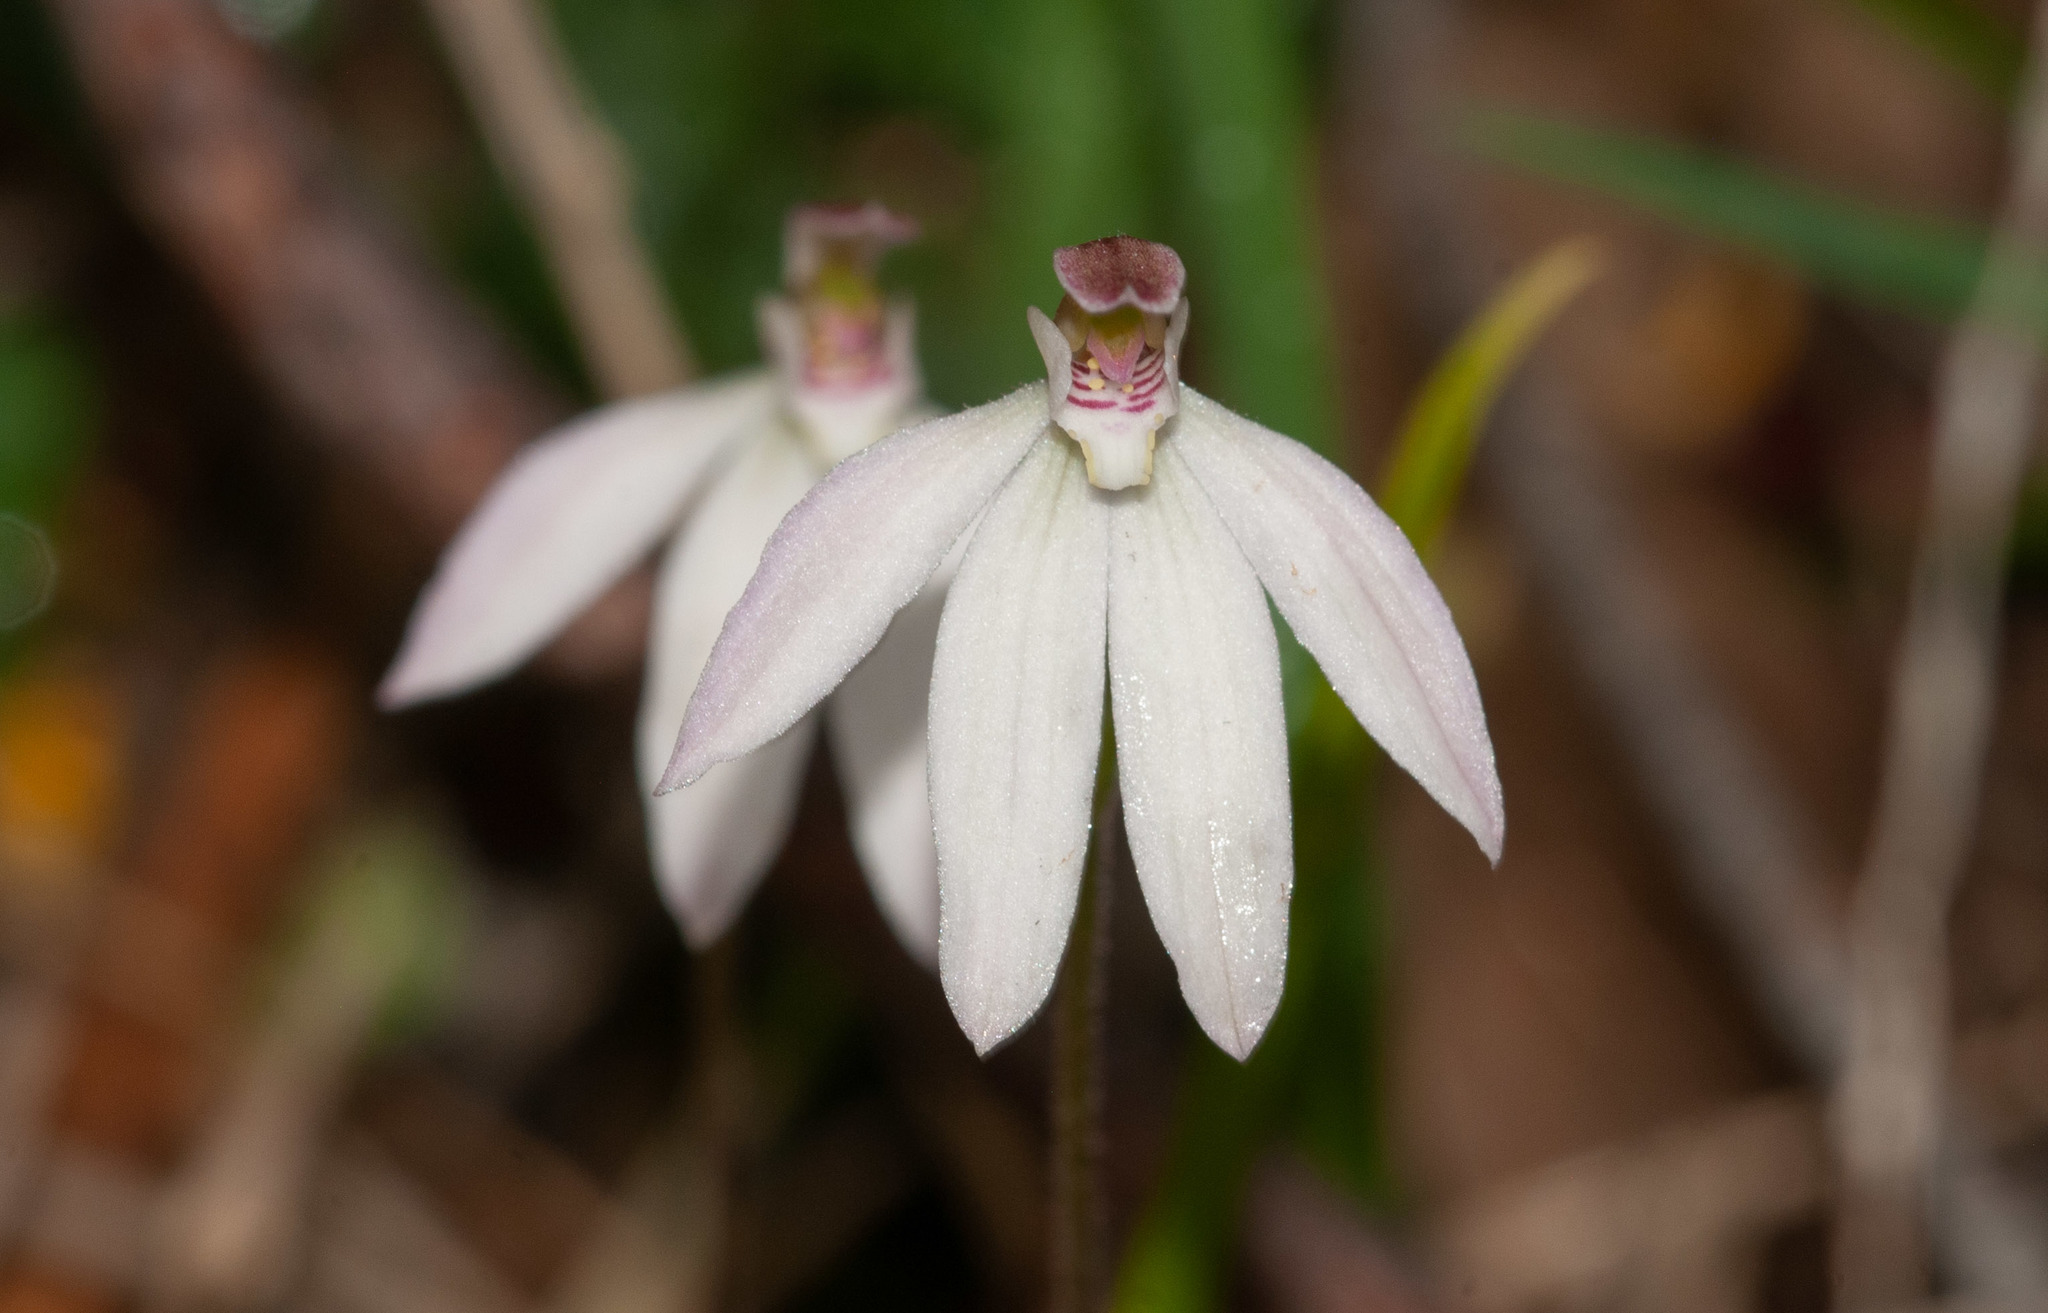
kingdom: Plantae
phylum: Tracheophyta
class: Liliopsida
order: Asparagales
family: Orchidaceae
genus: Caladenia
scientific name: Caladenia carnea
